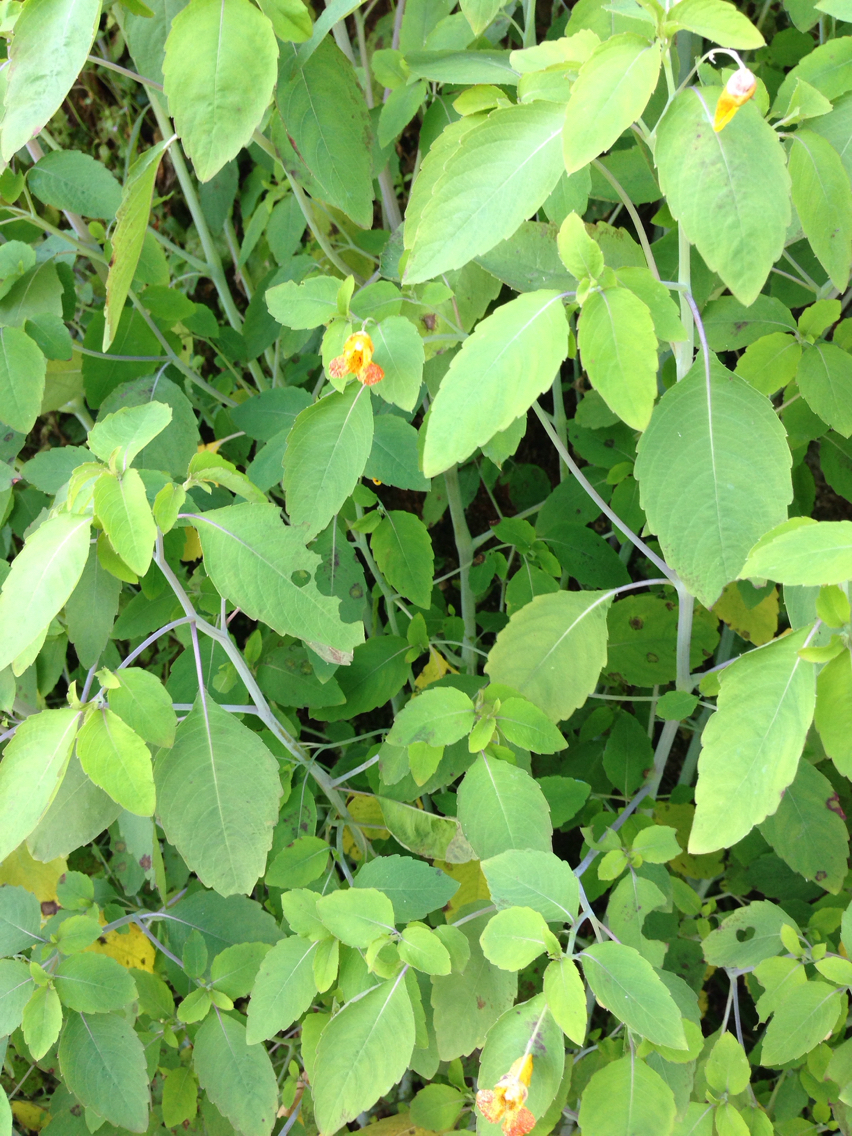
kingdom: Plantae
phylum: Tracheophyta
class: Magnoliopsida
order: Ericales
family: Balsaminaceae
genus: Impatiens
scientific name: Impatiens capensis
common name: Orange balsam
